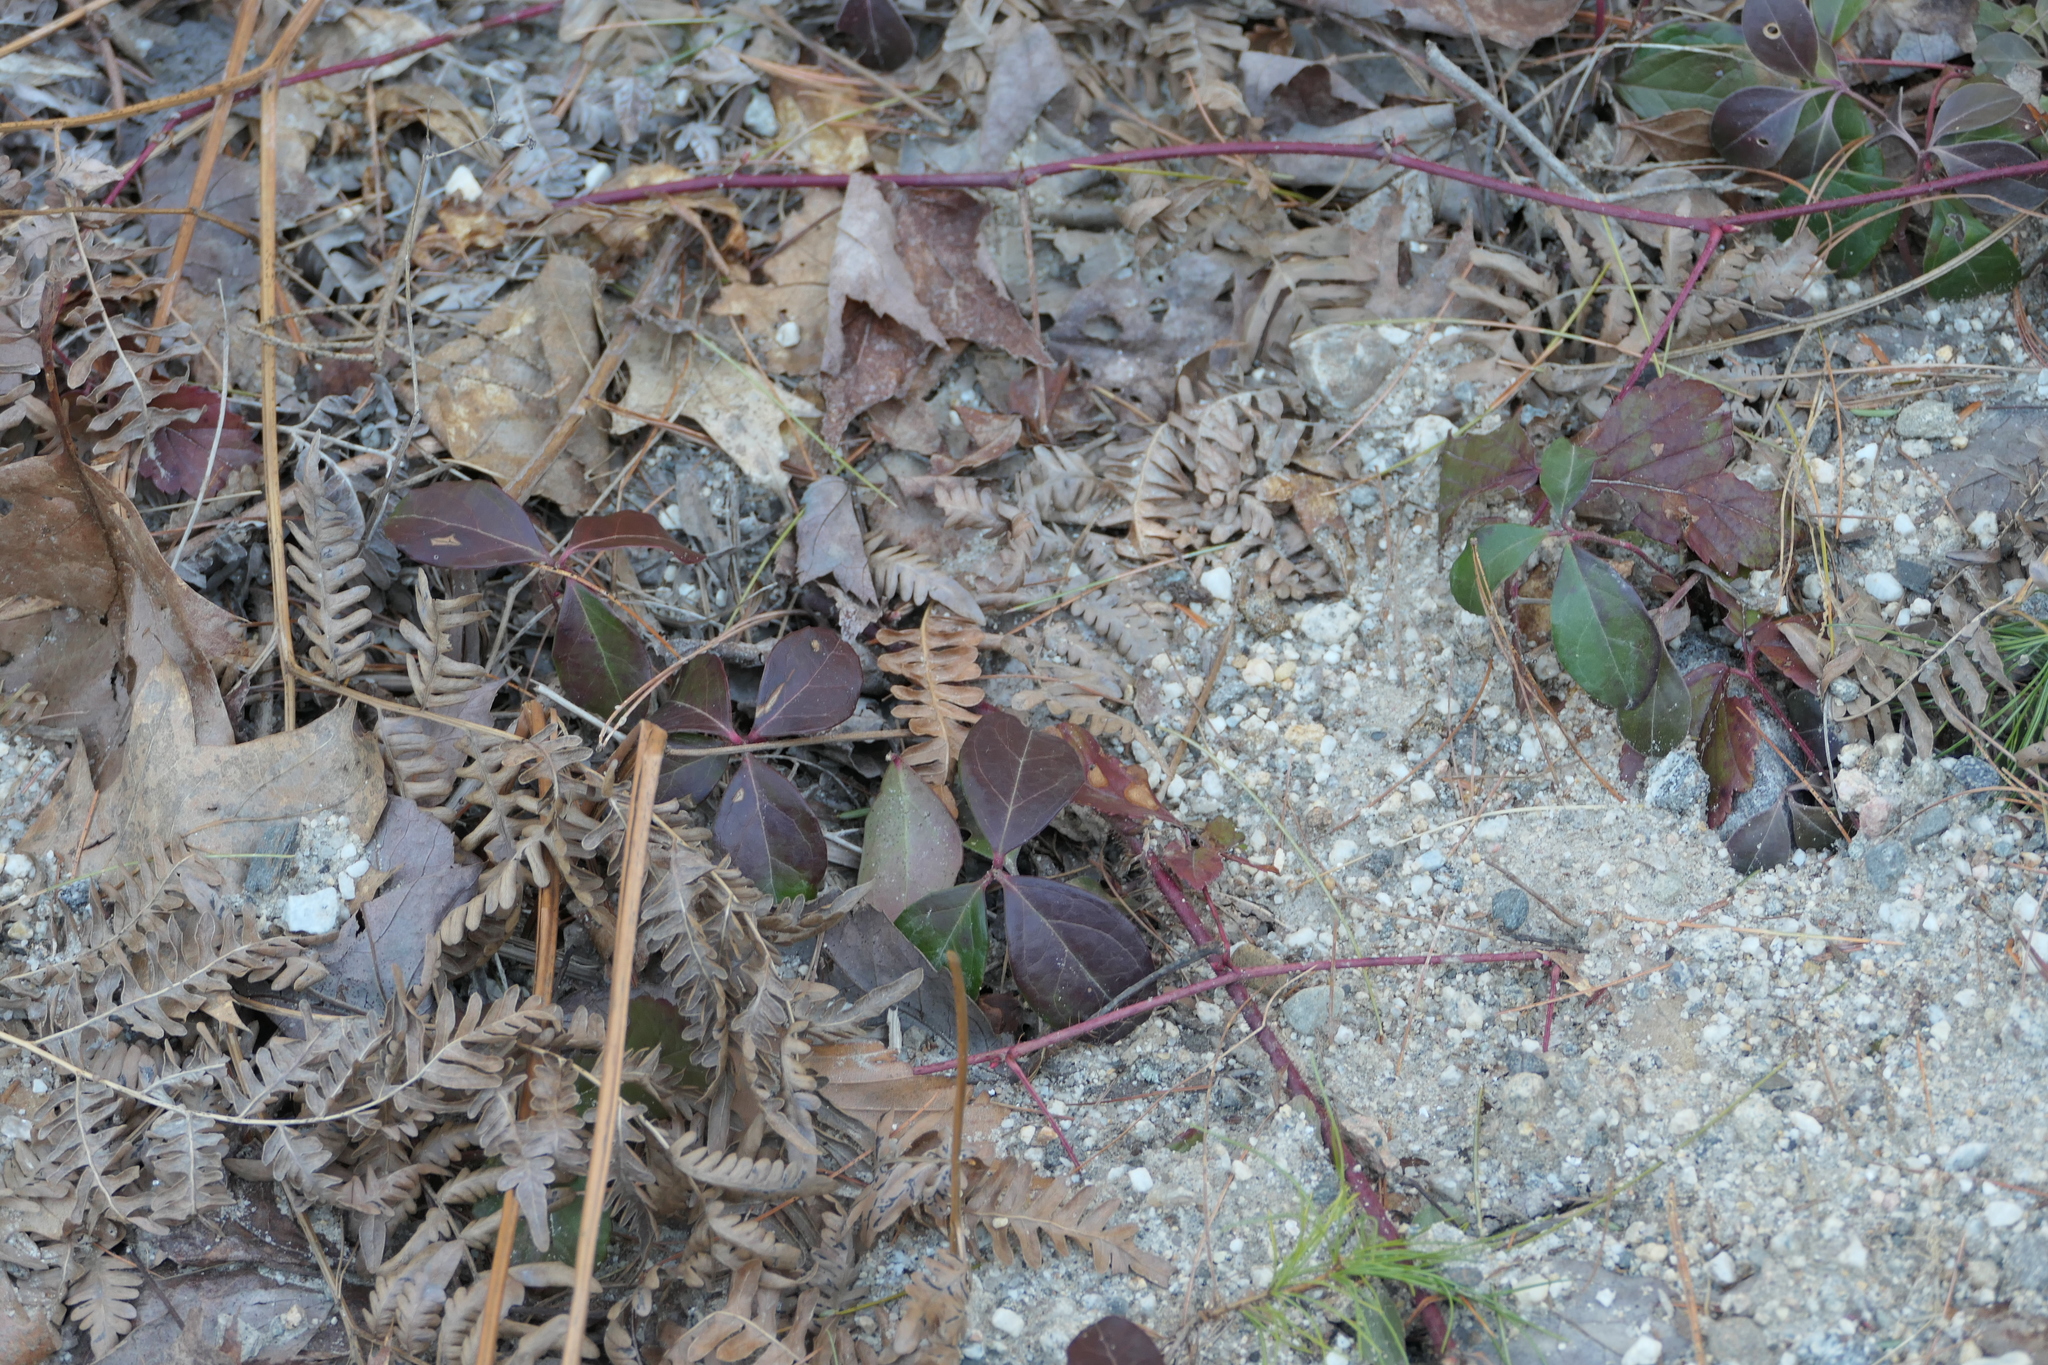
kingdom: Plantae
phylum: Tracheophyta
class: Magnoliopsida
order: Ericales
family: Ericaceae
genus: Gaultheria
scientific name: Gaultheria procumbens
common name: Checkerberry
